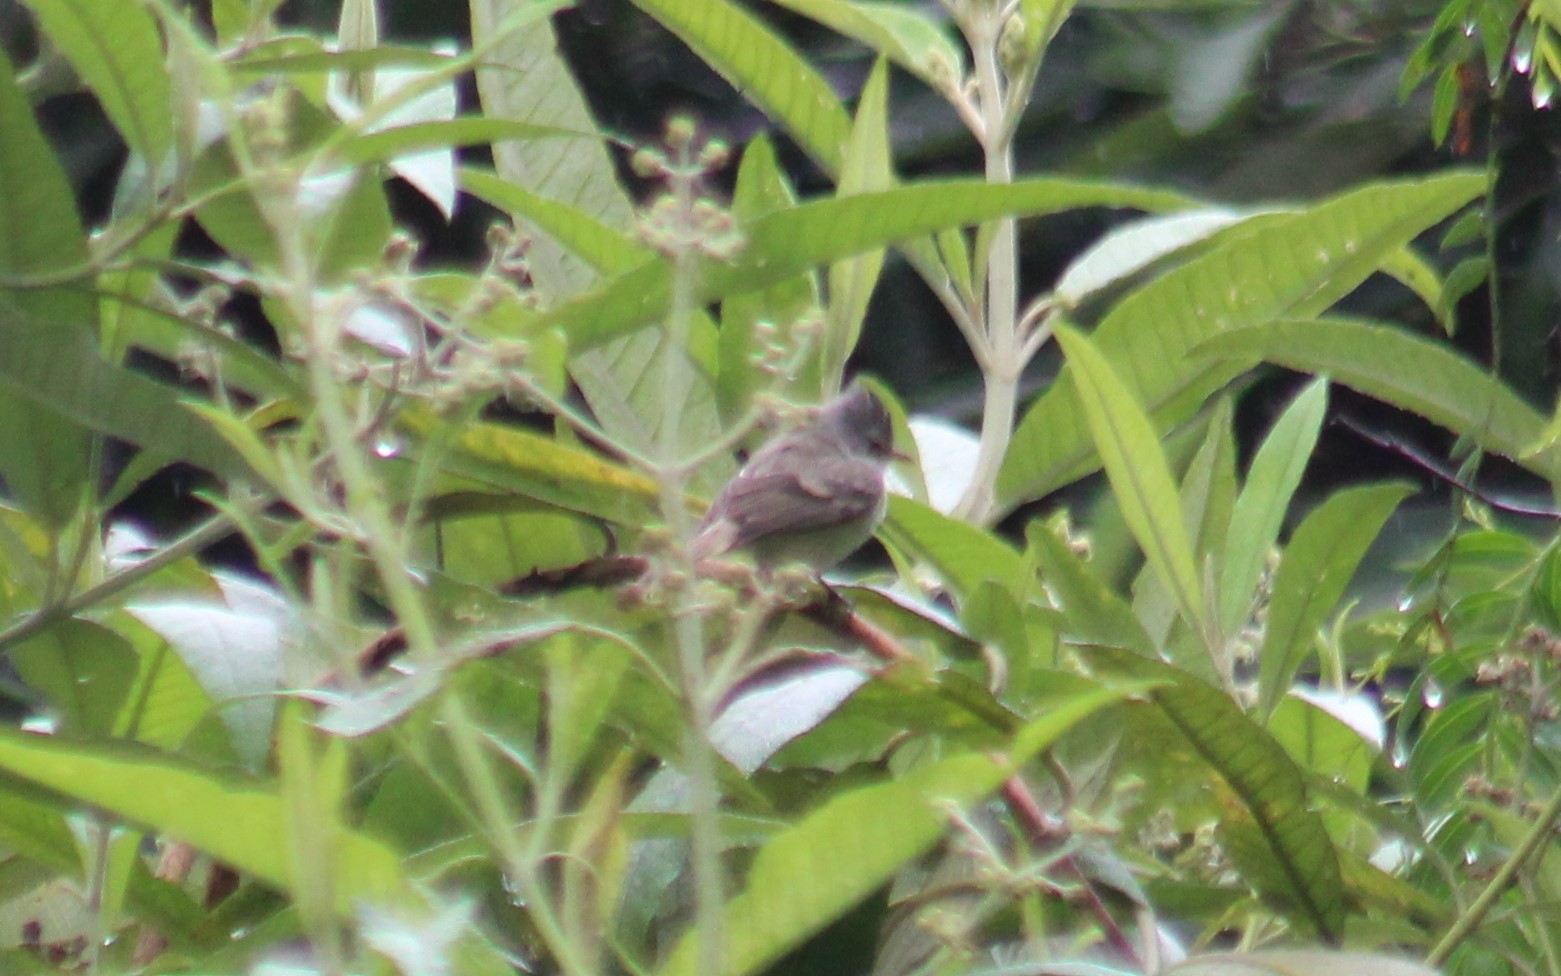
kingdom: Animalia
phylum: Chordata
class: Aves
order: Passeriformes
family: Tyrannidae
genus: Camptostoma
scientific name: Camptostoma obsoletum
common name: Southern beardless-tyrannulet
